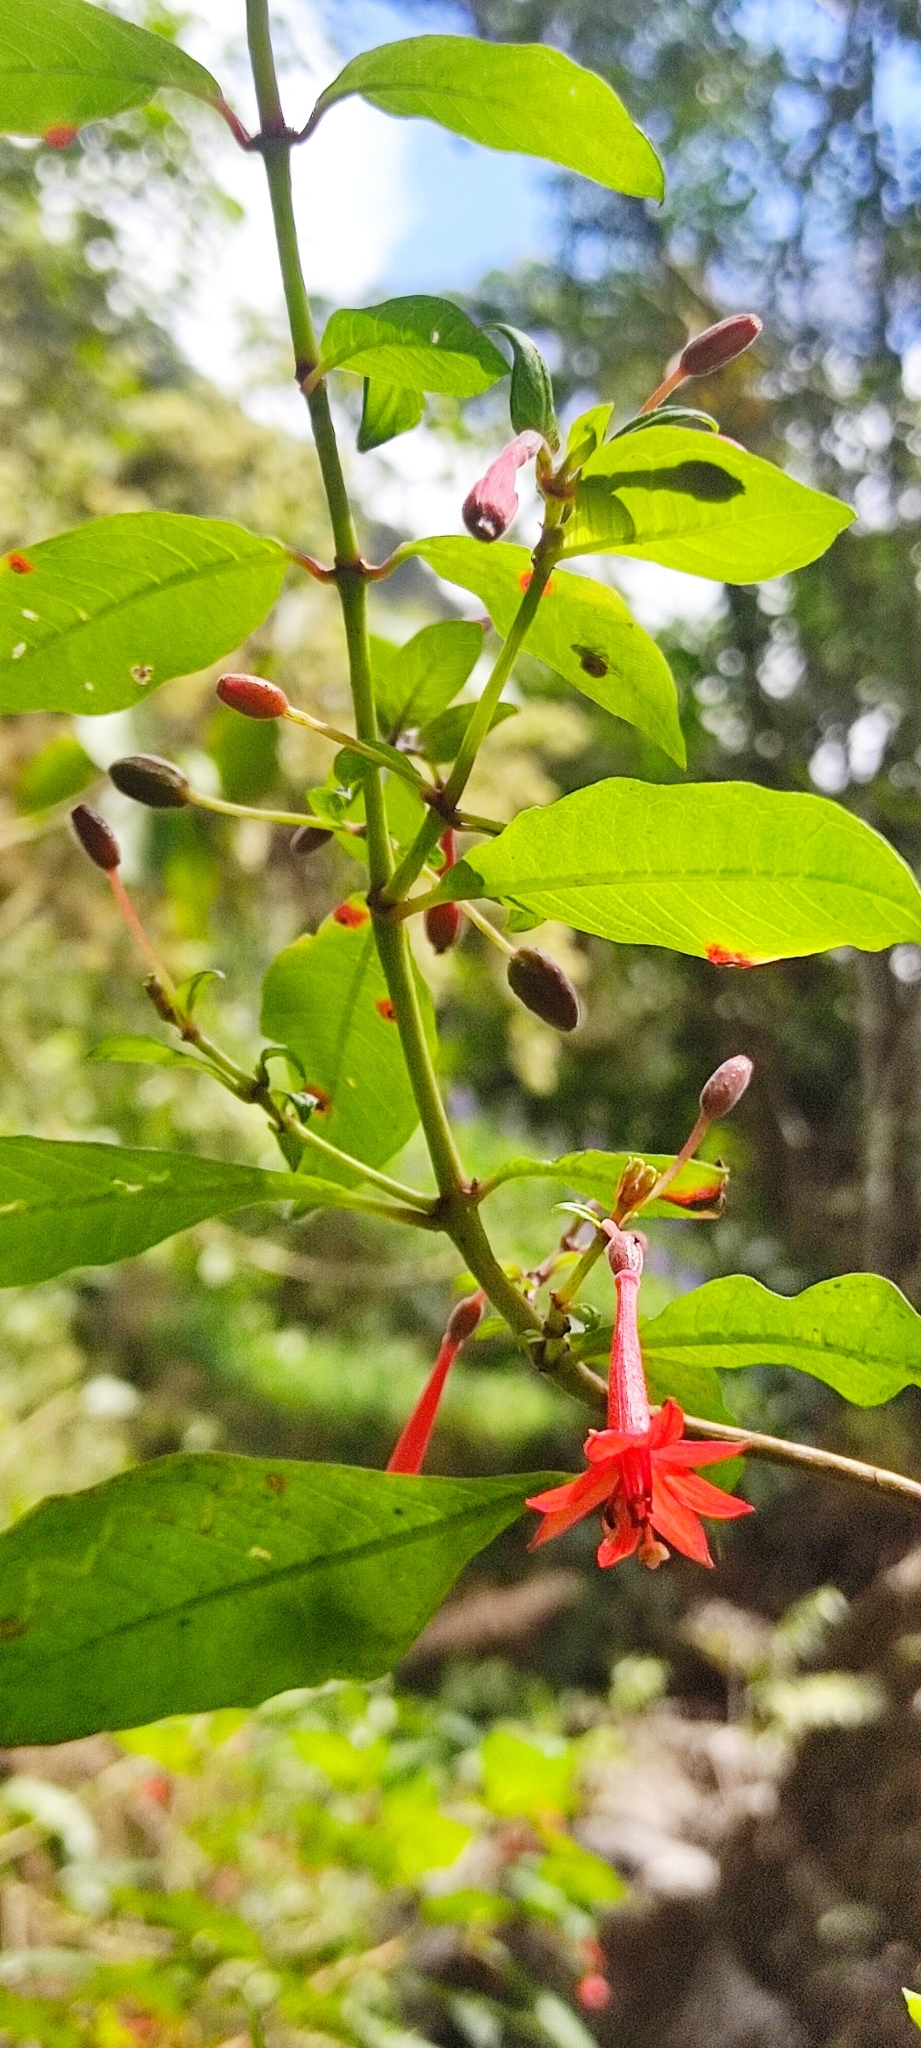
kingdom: Plantae
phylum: Tracheophyta
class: Magnoliopsida
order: Myrtales
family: Onagraceae
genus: Fuchsia
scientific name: Fuchsia rivularis
